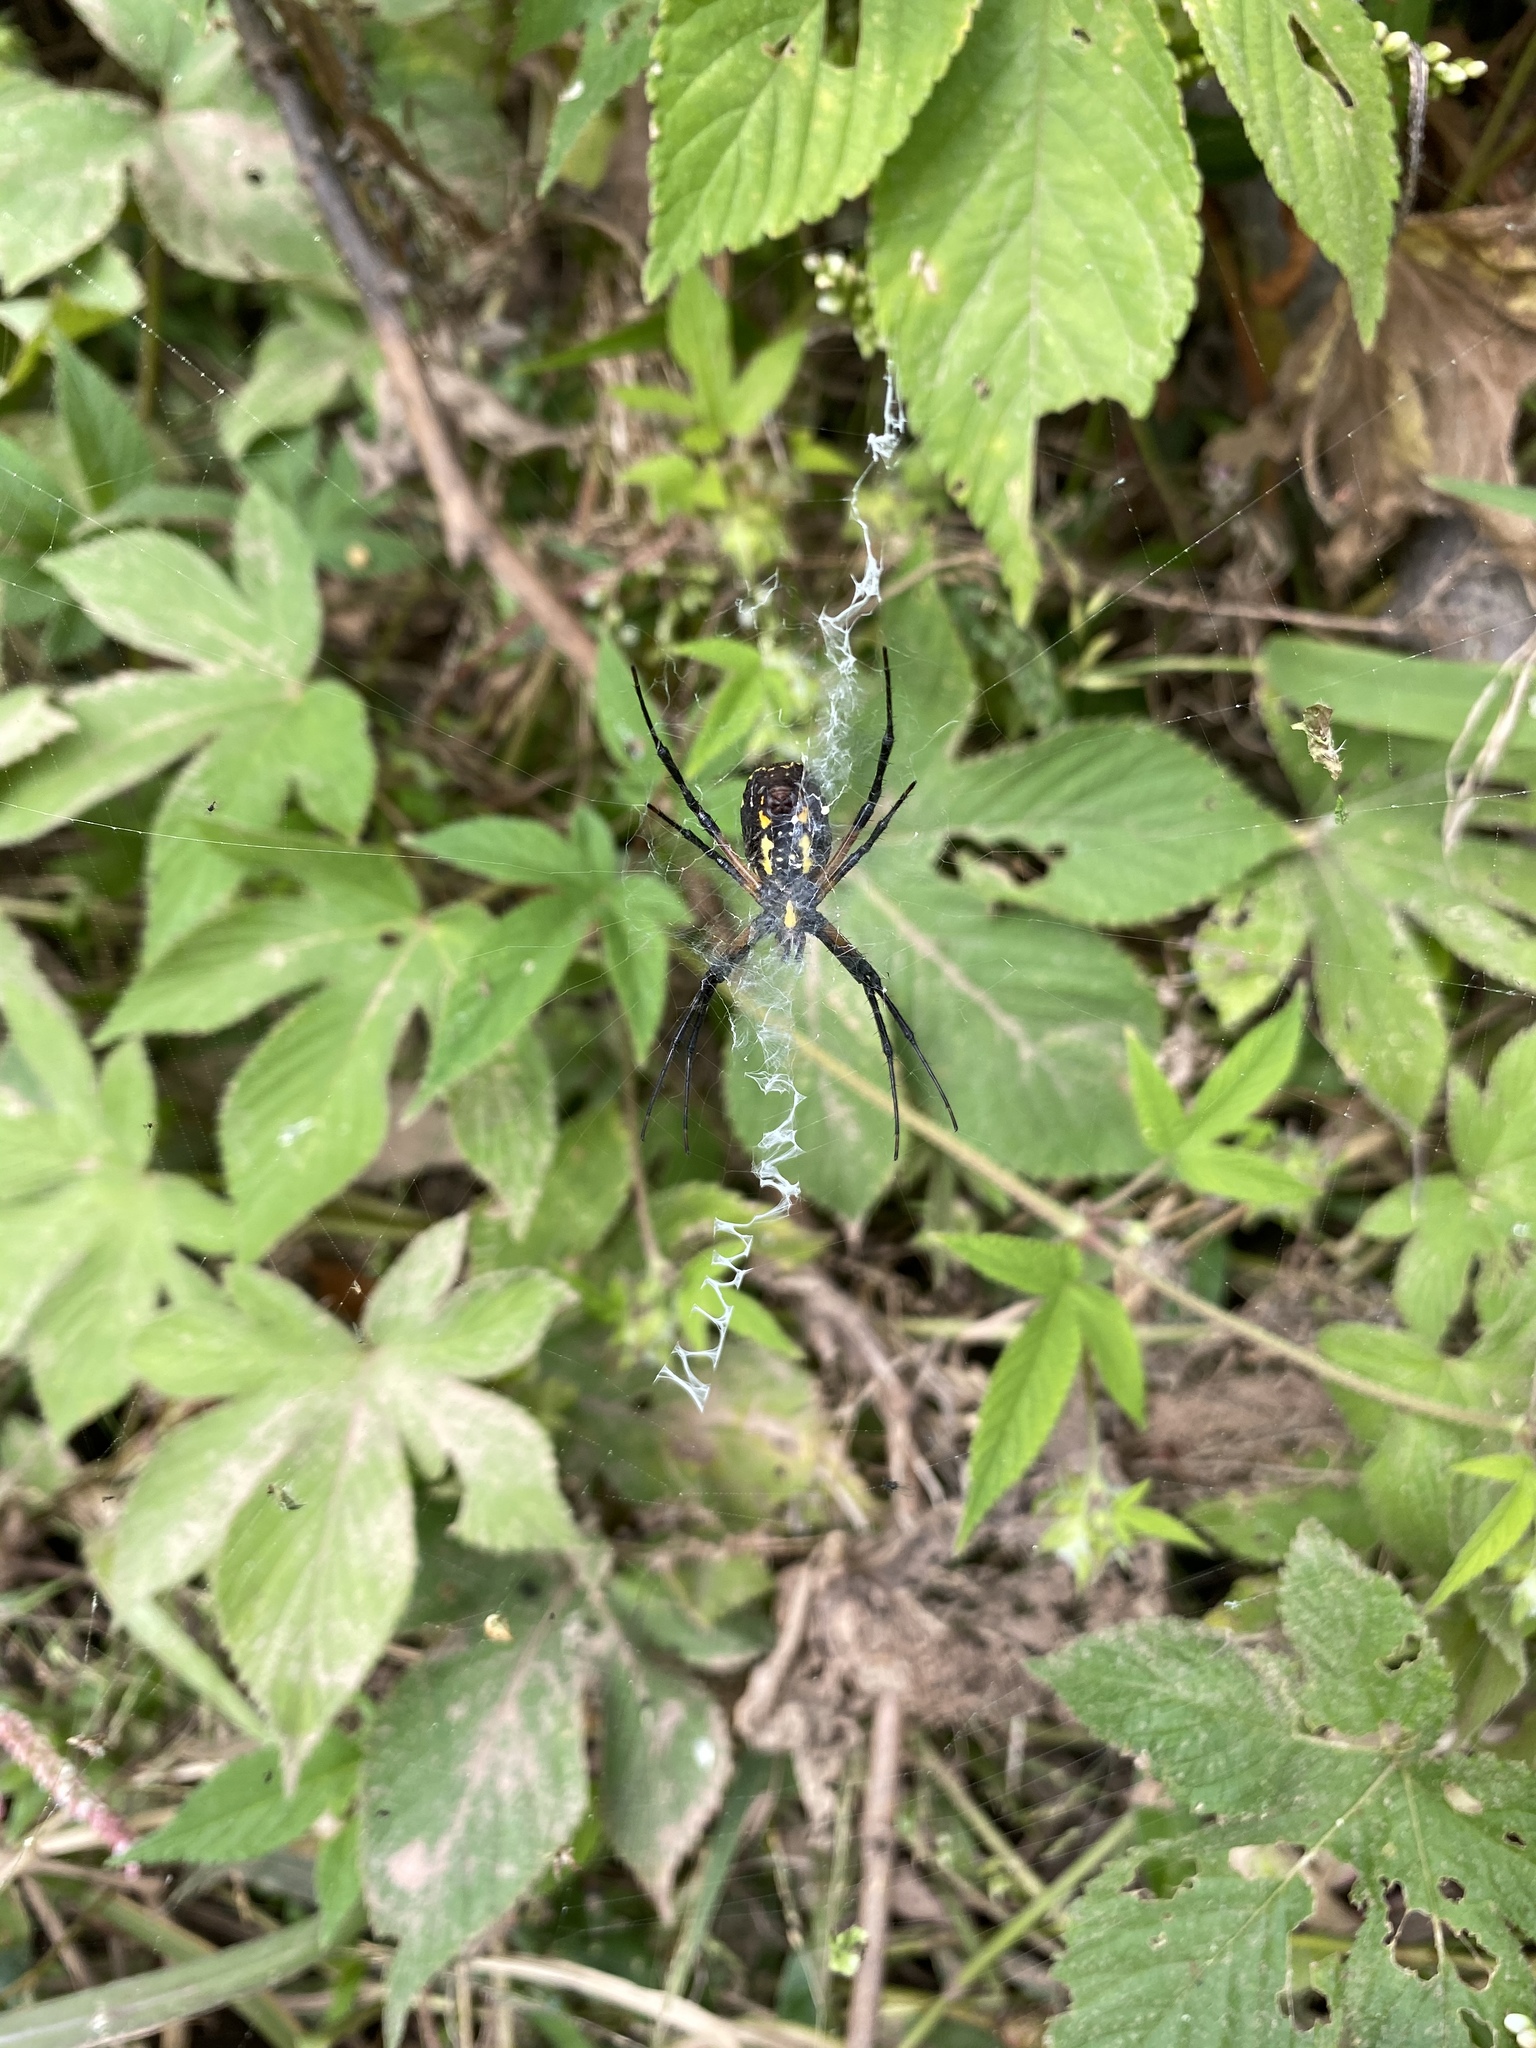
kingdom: Animalia
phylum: Arthropoda
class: Arachnida
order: Araneae
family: Araneidae
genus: Argiope
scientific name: Argiope aurantia
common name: Orb weavers
